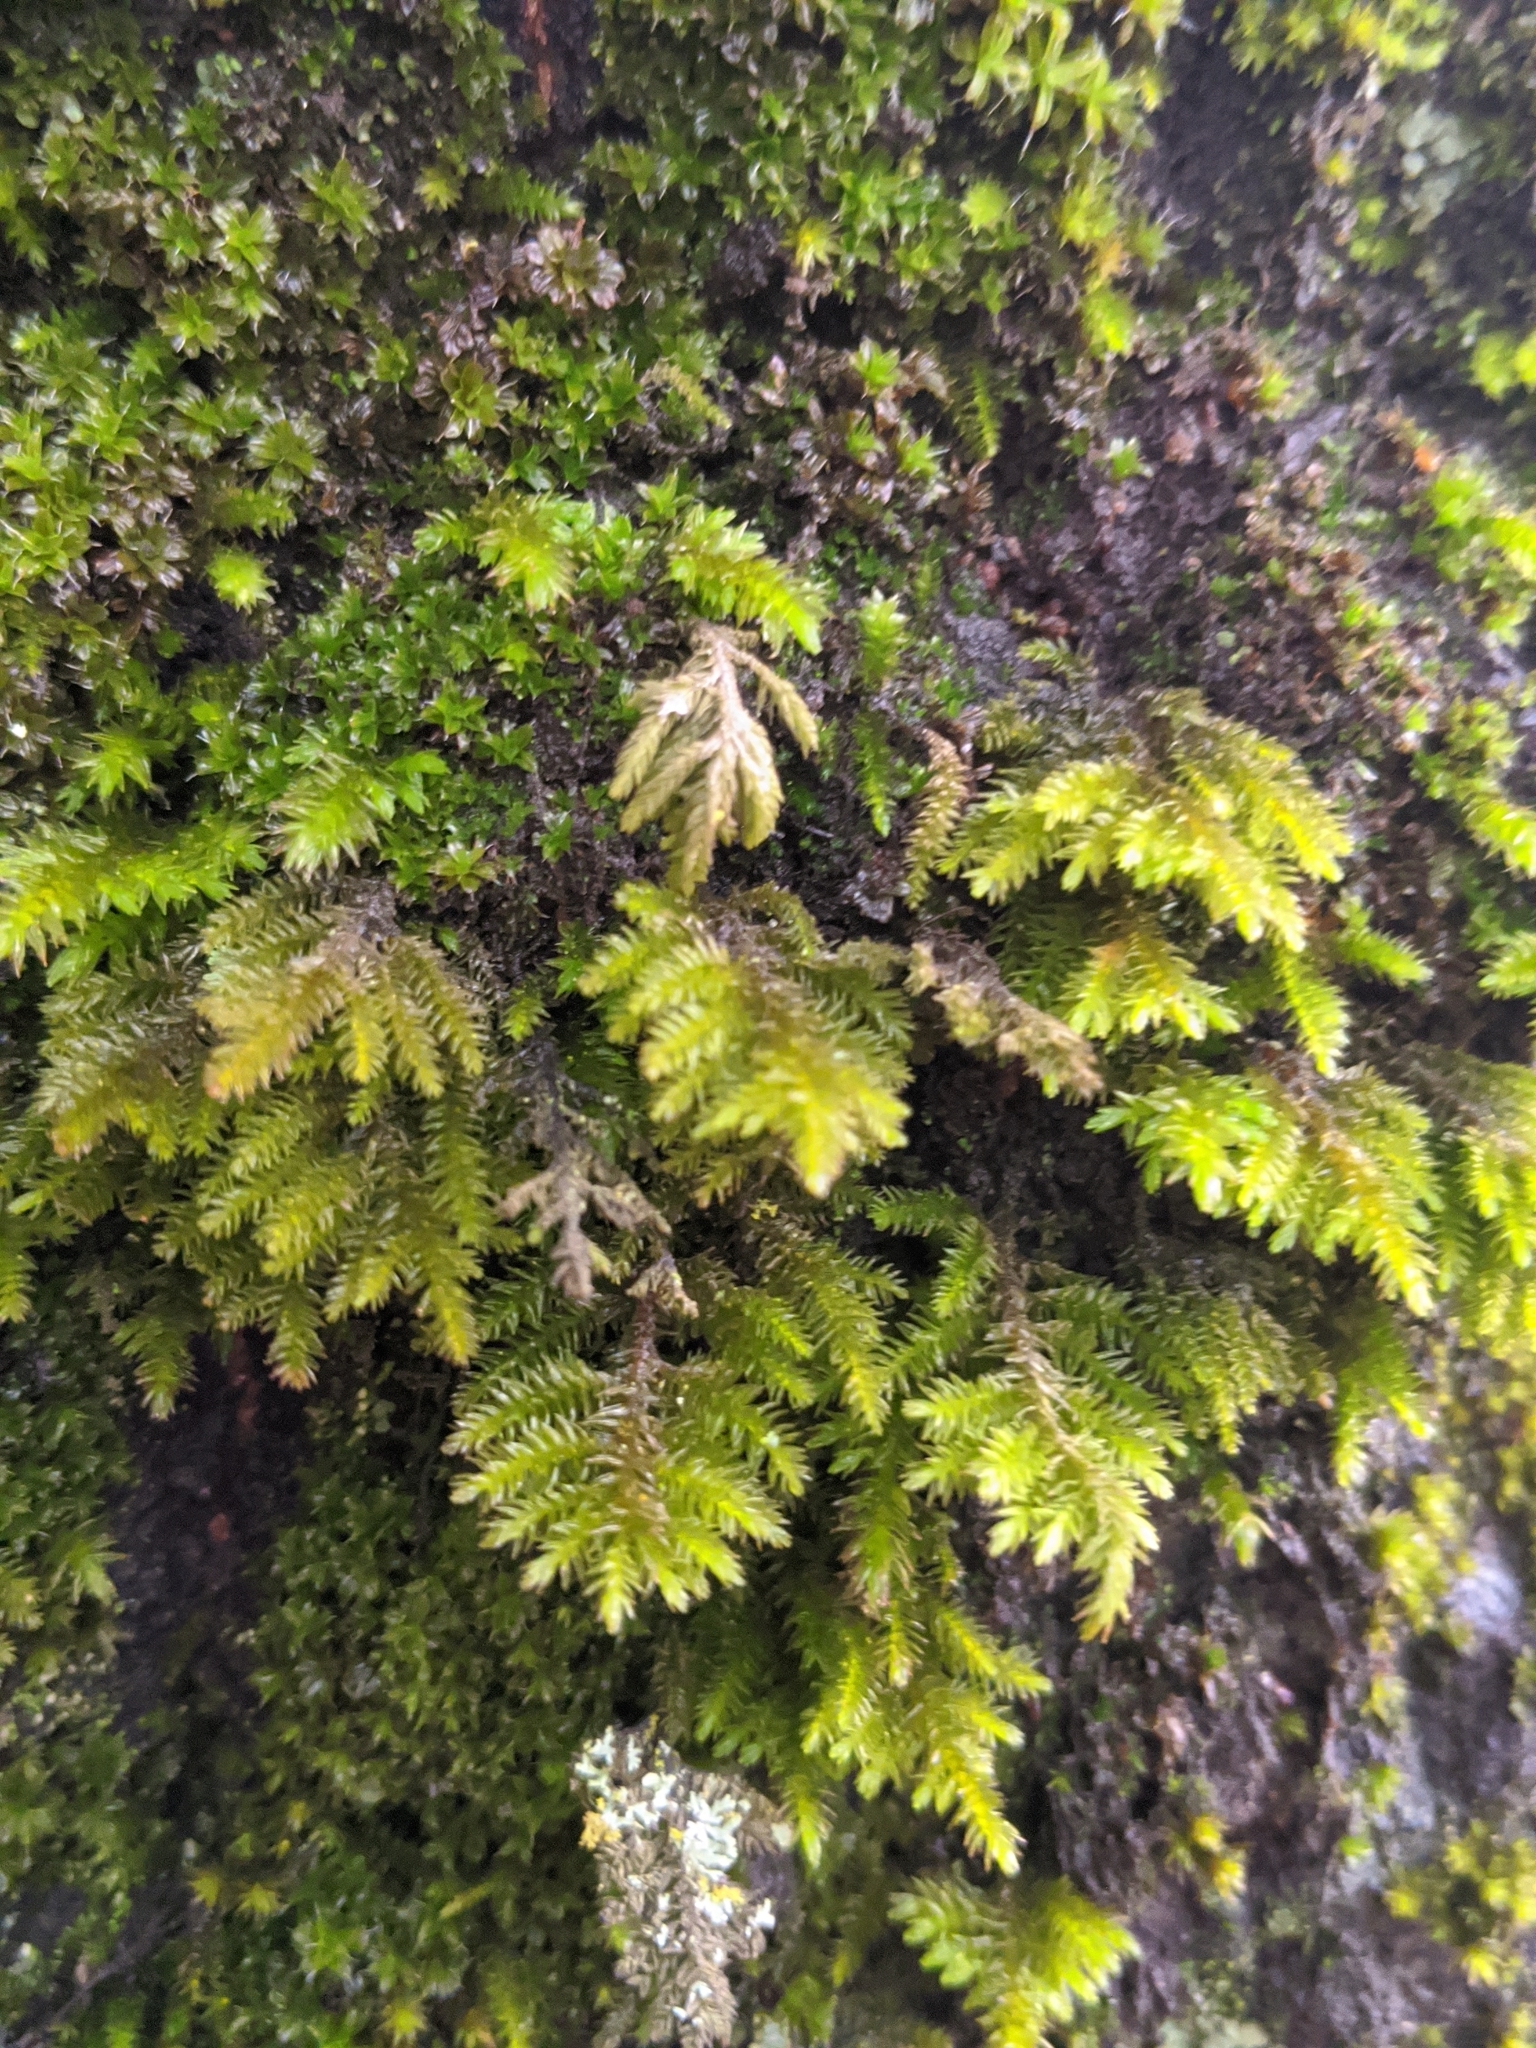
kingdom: Plantae
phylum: Bryophyta
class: Bryopsida
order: Hypnales
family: Cryphaeaceae
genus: Dendroalsia
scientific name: Dendroalsia abietina
